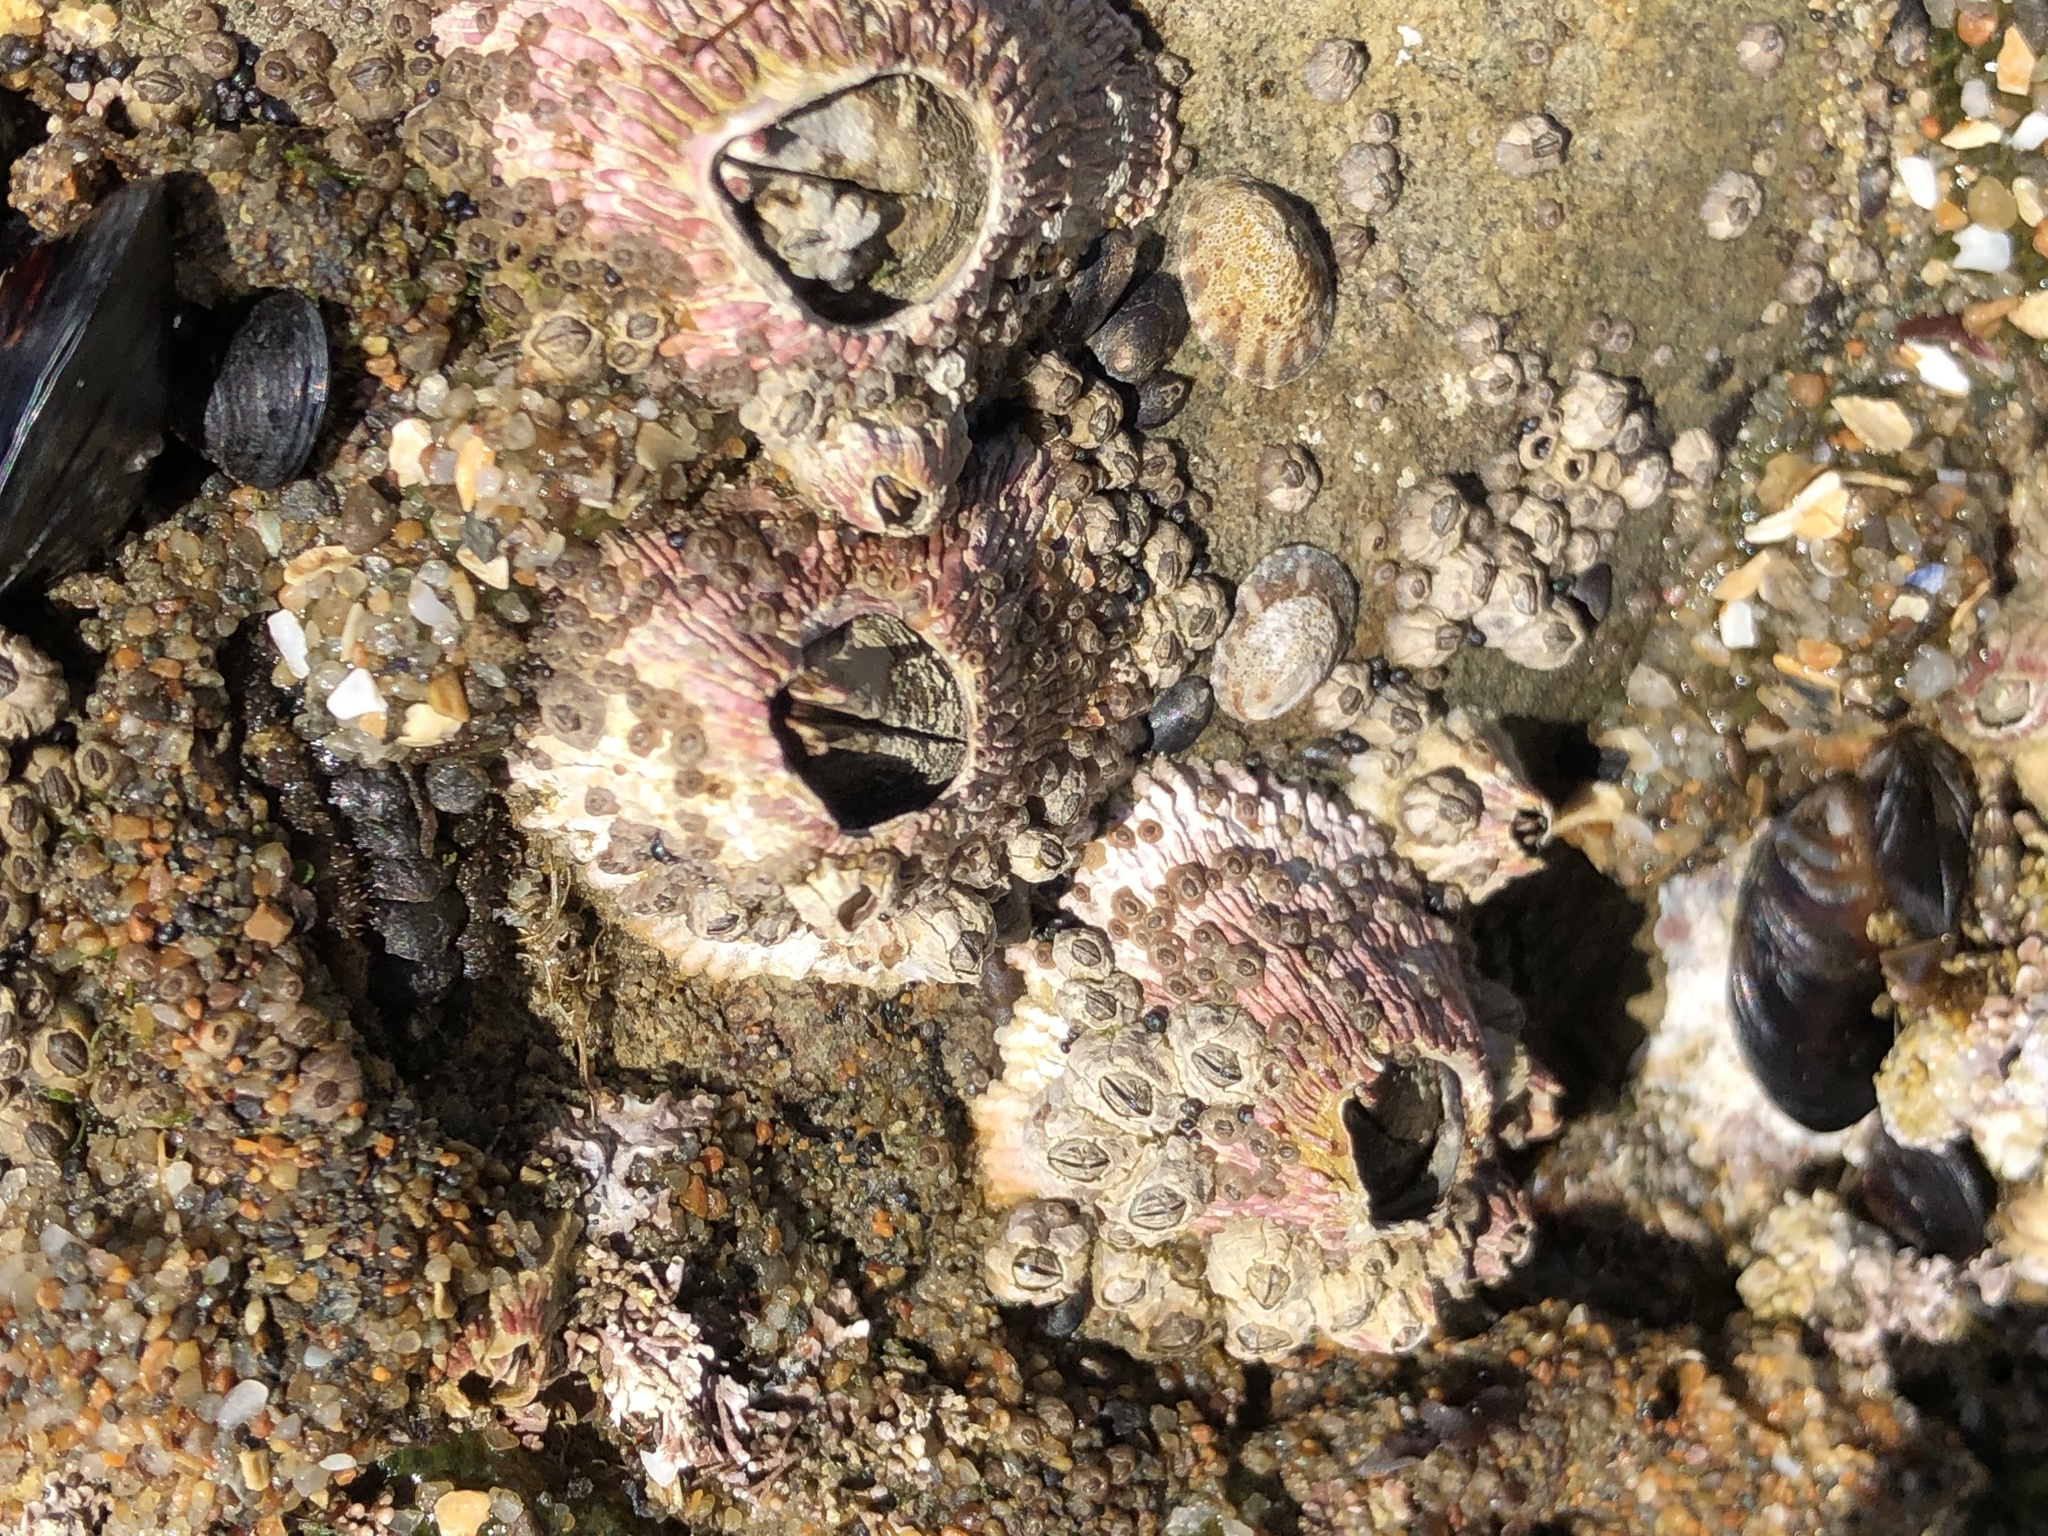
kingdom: Animalia
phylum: Arthropoda
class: Maxillopoda
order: Sessilia
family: Tetraclitidae
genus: Tetraclita
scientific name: Tetraclita rubescens
